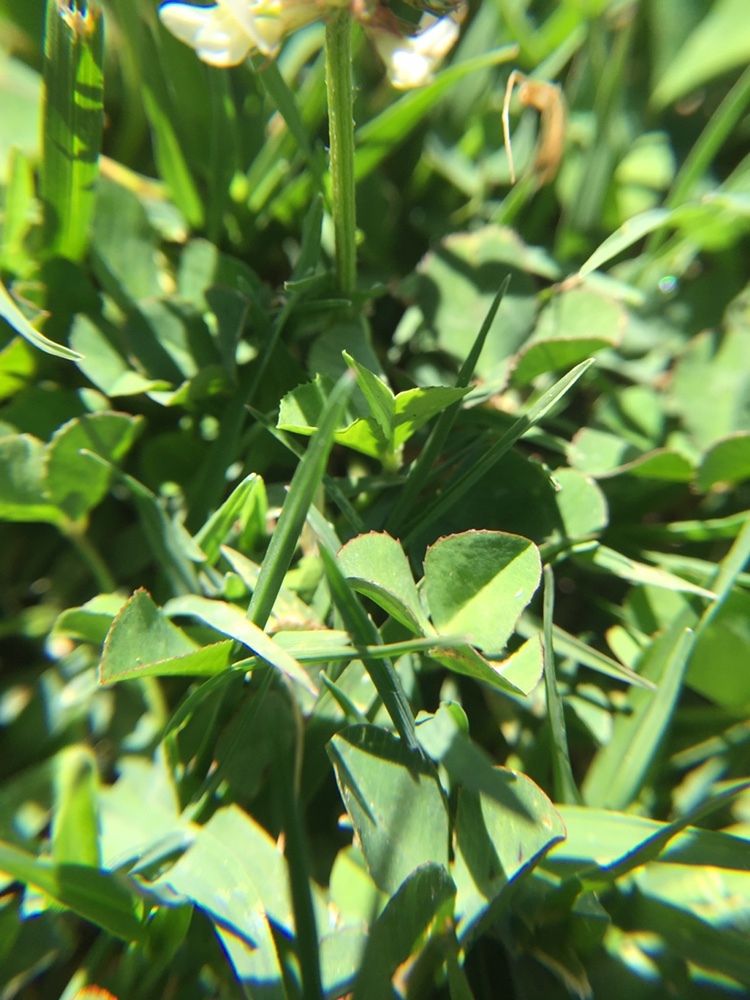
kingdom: Plantae
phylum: Tracheophyta
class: Magnoliopsida
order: Fabales
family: Fabaceae
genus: Trifolium
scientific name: Trifolium repens
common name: White clover
